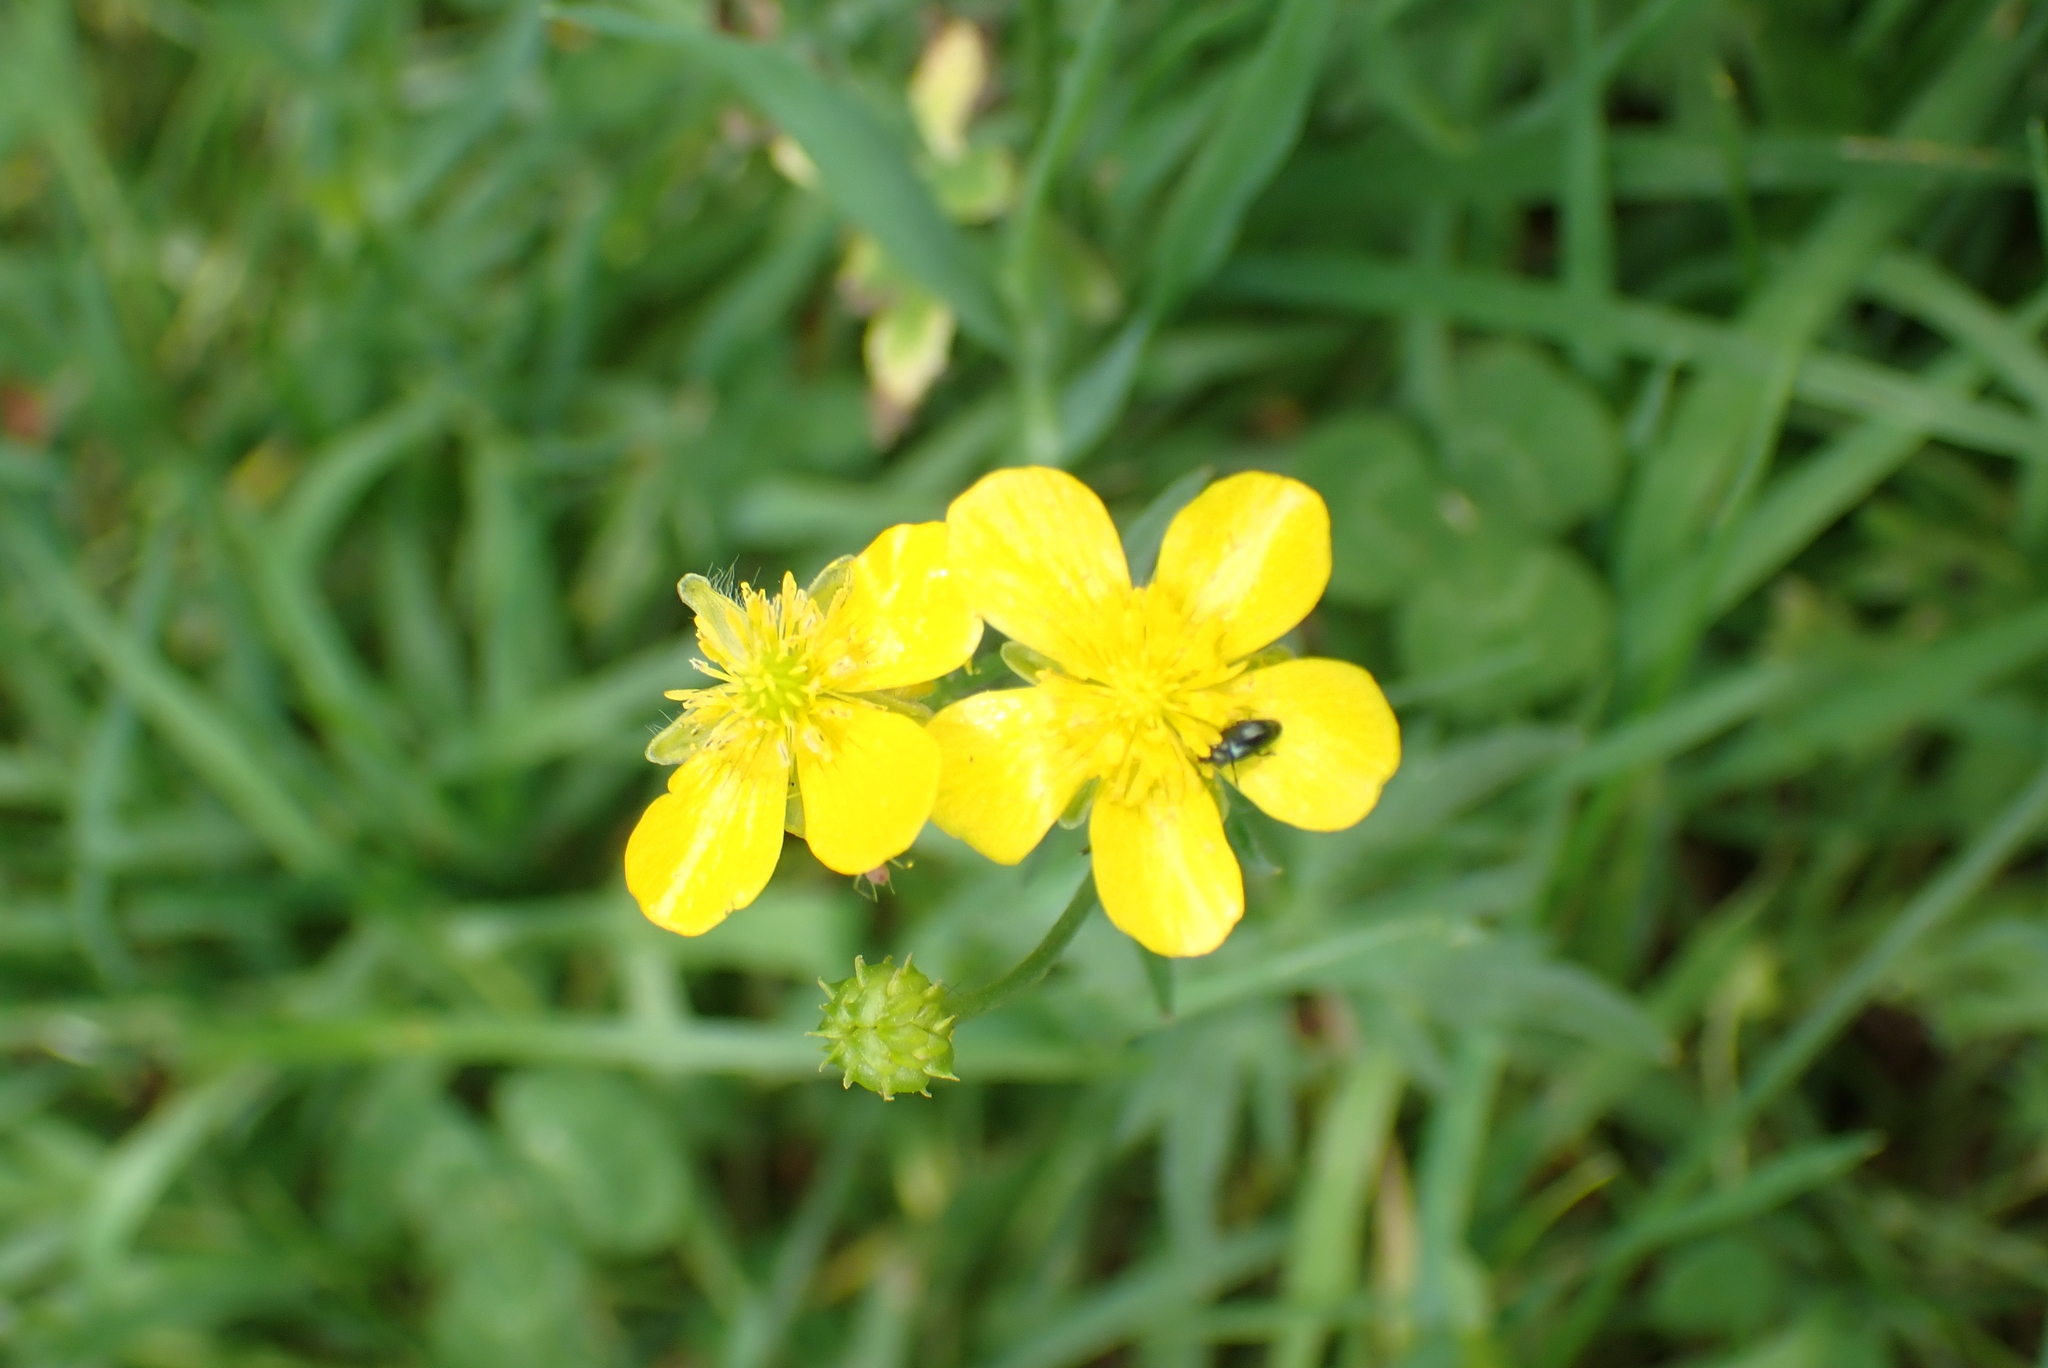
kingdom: Plantae
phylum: Tracheophyta
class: Magnoliopsida
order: Ranunculales
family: Ranunculaceae
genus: Ranunculus
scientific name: Ranunculus acris
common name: Meadow buttercup
